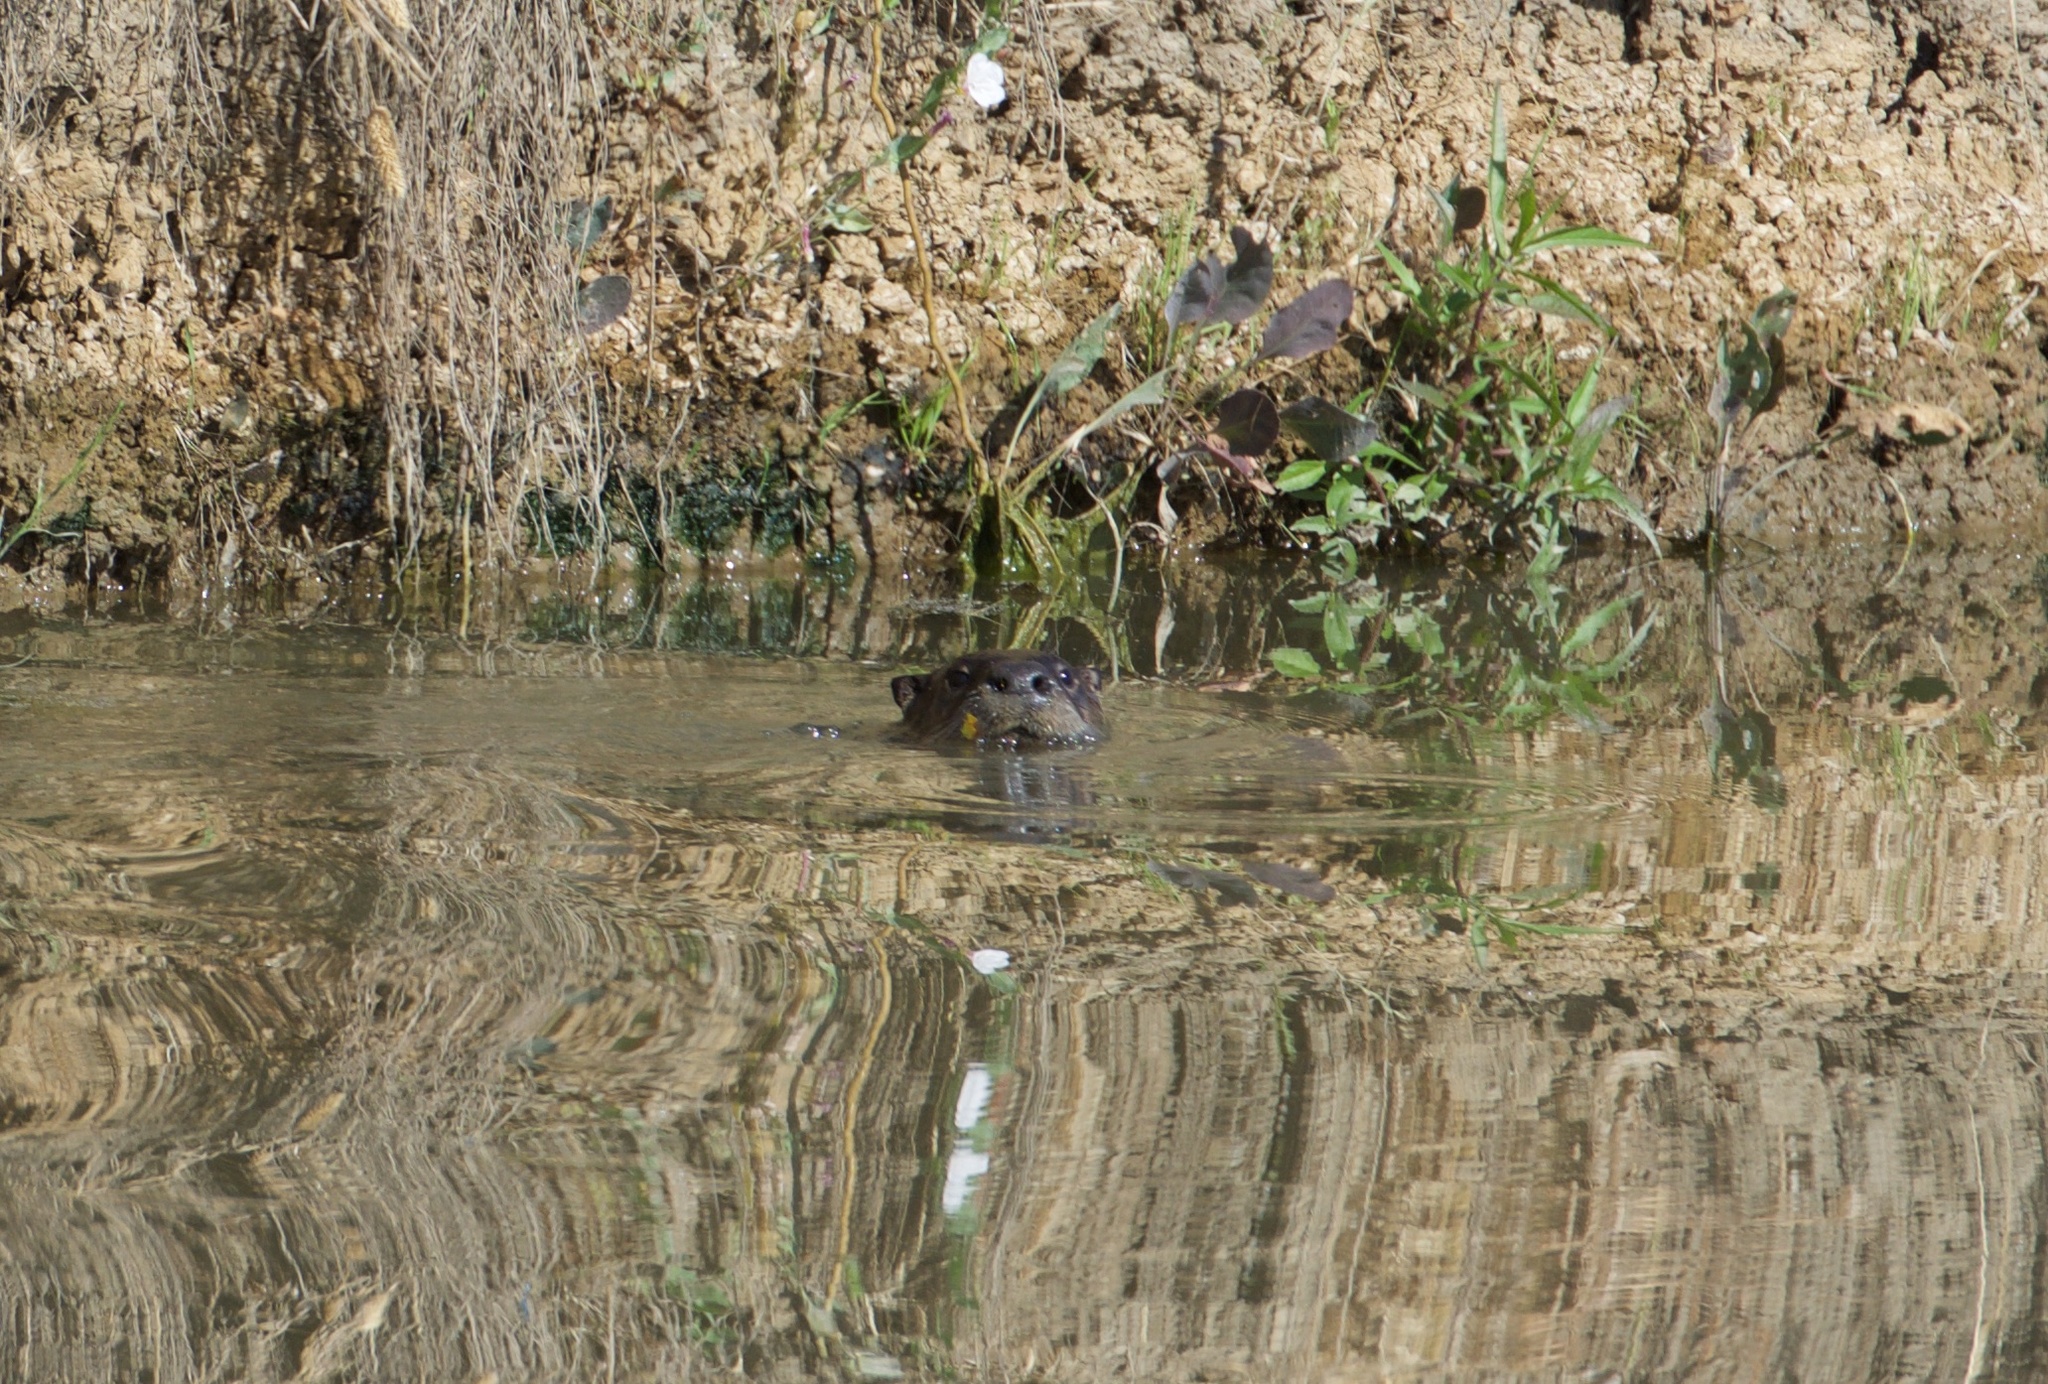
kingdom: Animalia
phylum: Chordata
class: Mammalia
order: Carnivora
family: Mustelidae
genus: Lontra
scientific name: Lontra canadensis
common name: North american river otter
